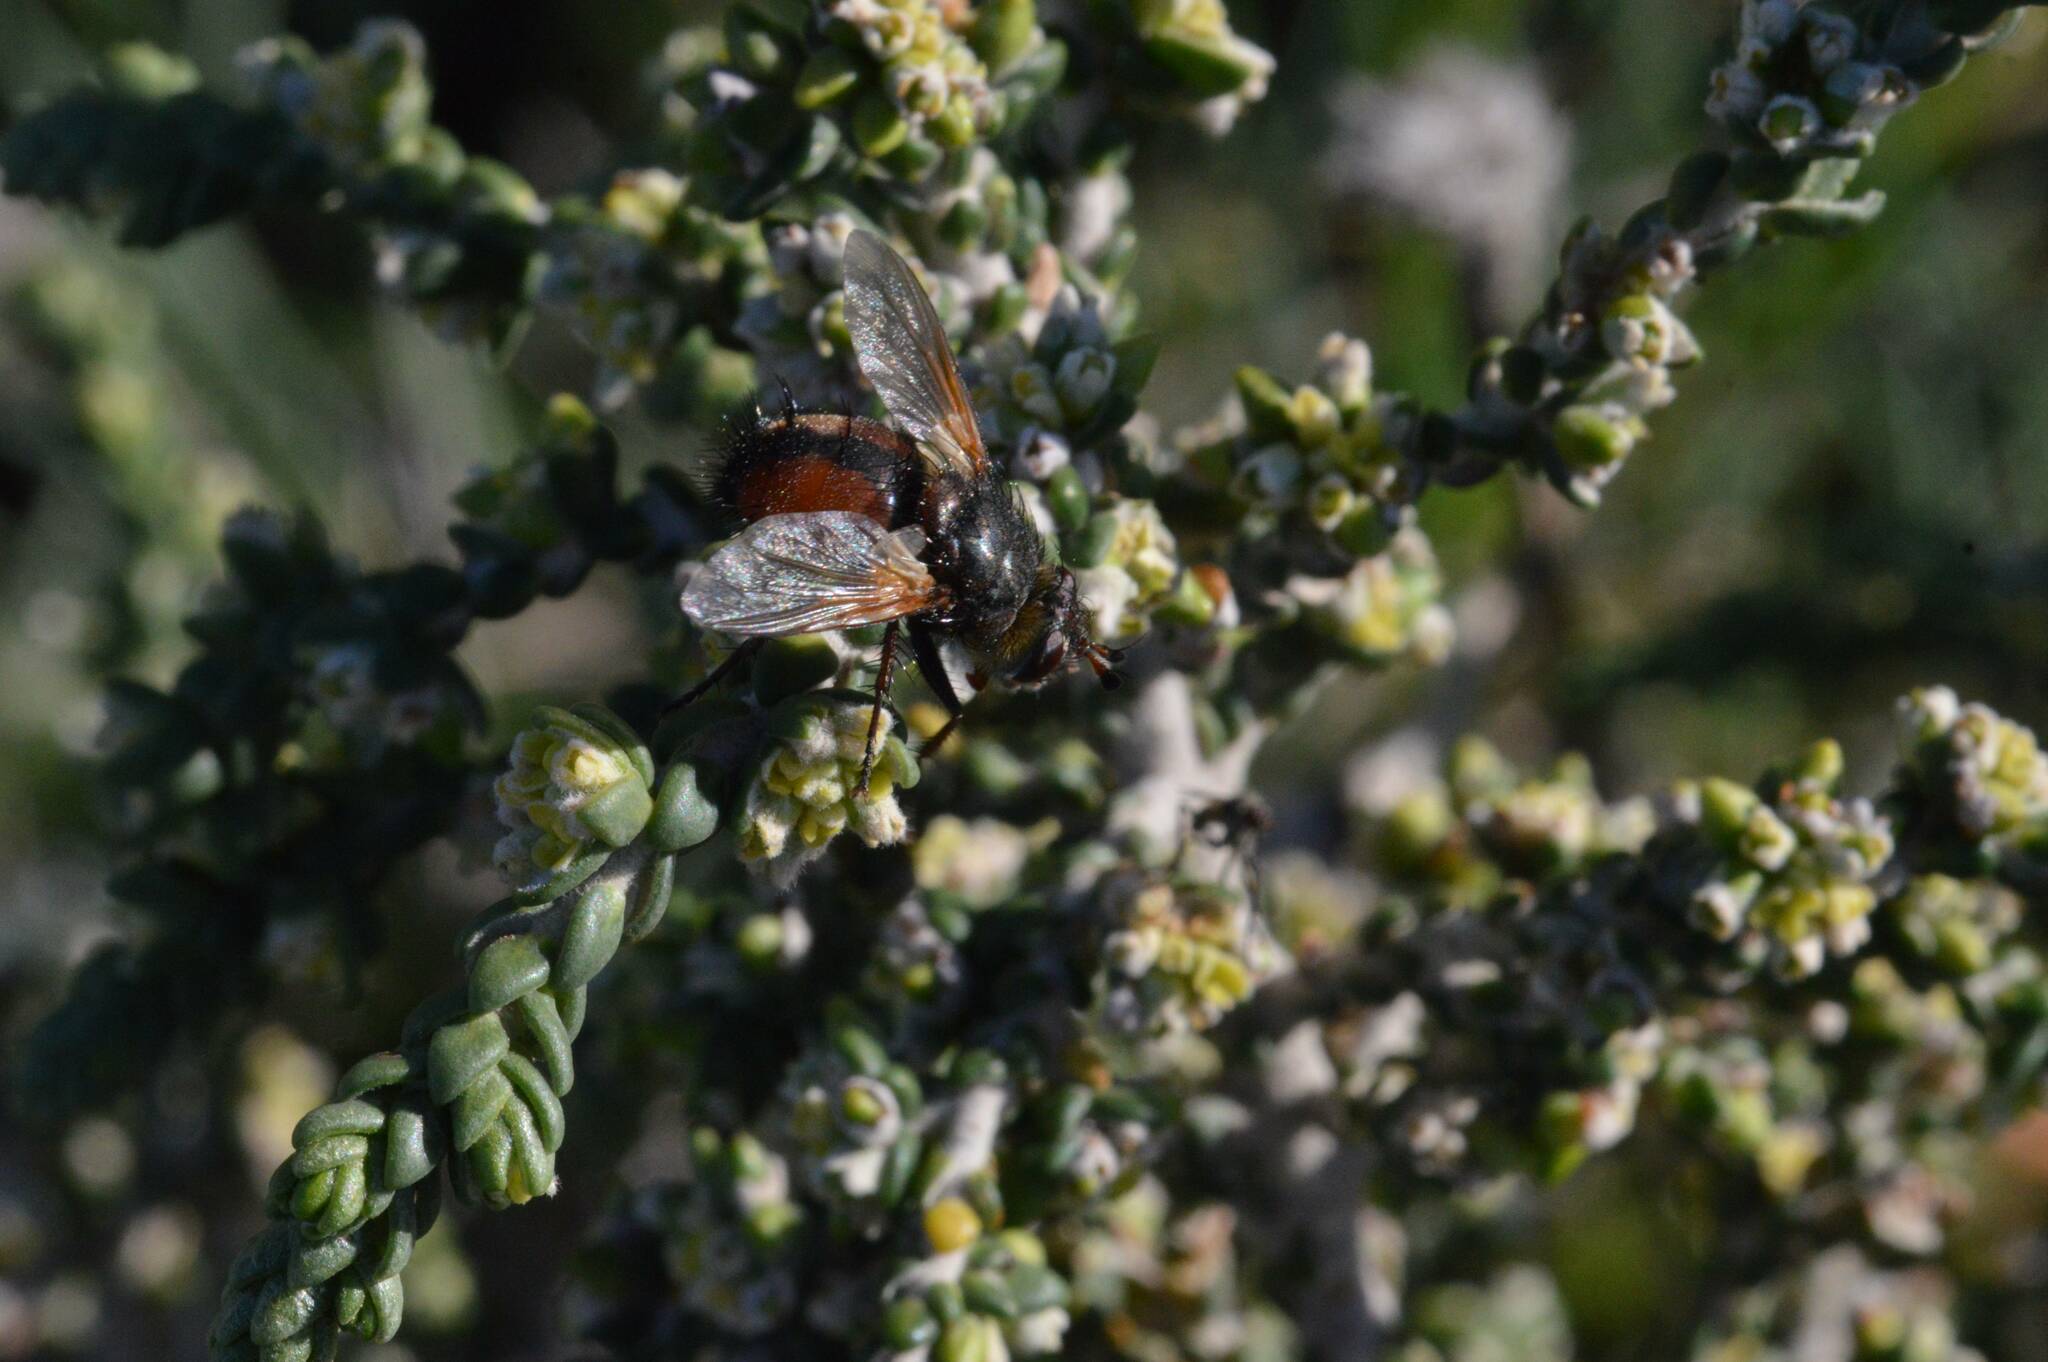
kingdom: Plantae
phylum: Tracheophyta
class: Magnoliopsida
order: Malvales
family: Thymelaeaceae
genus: Thymelaea
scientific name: Thymelaea hirsuta
